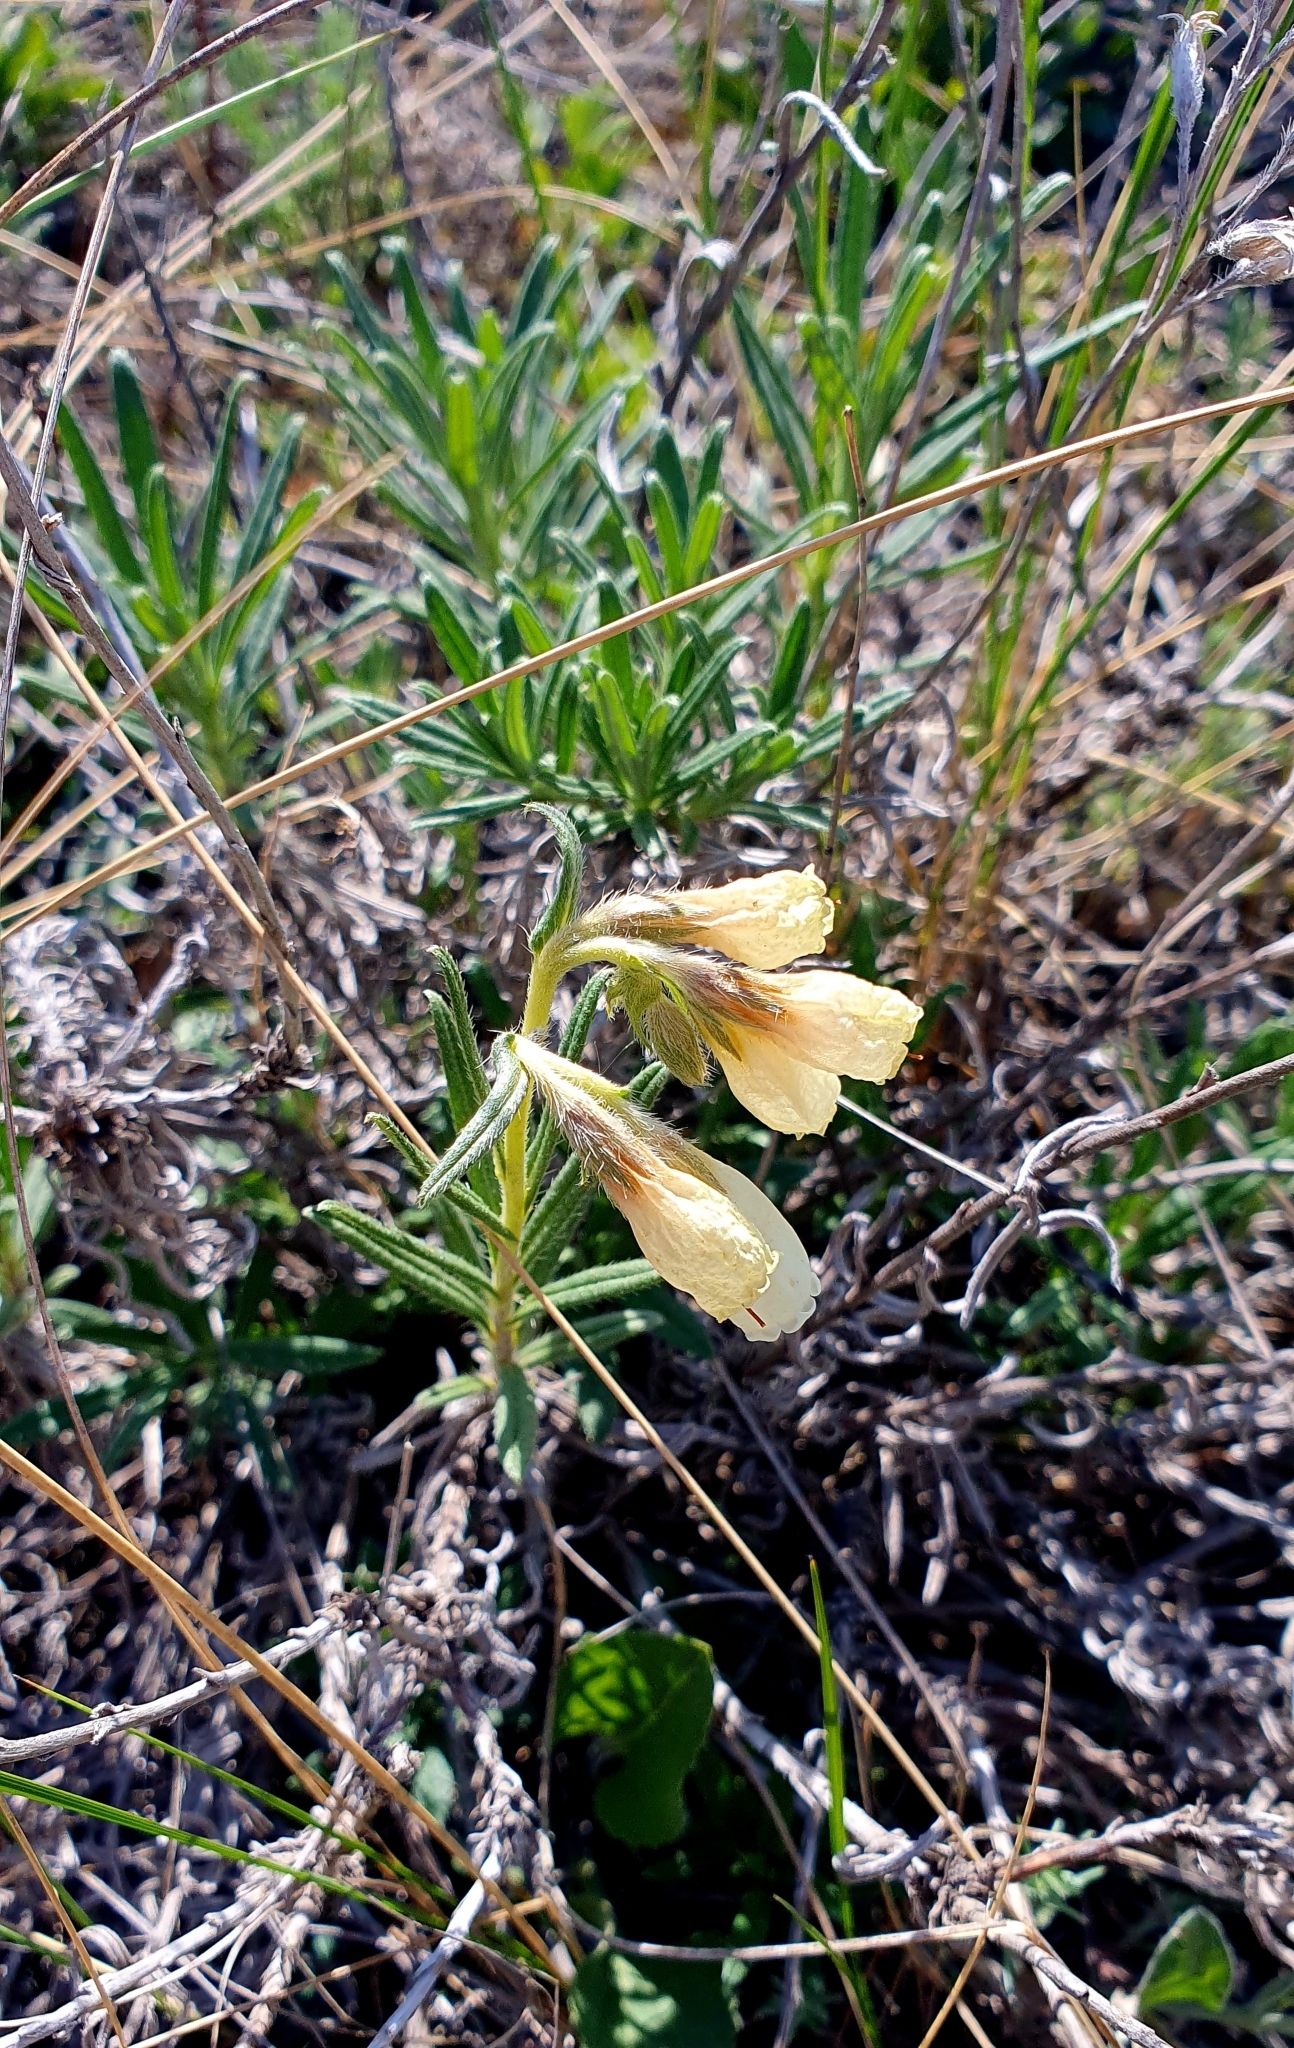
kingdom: Plantae
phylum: Tracheophyta
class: Magnoliopsida
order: Boraginales
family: Boraginaceae
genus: Onosma
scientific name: Onosma simplicissima
